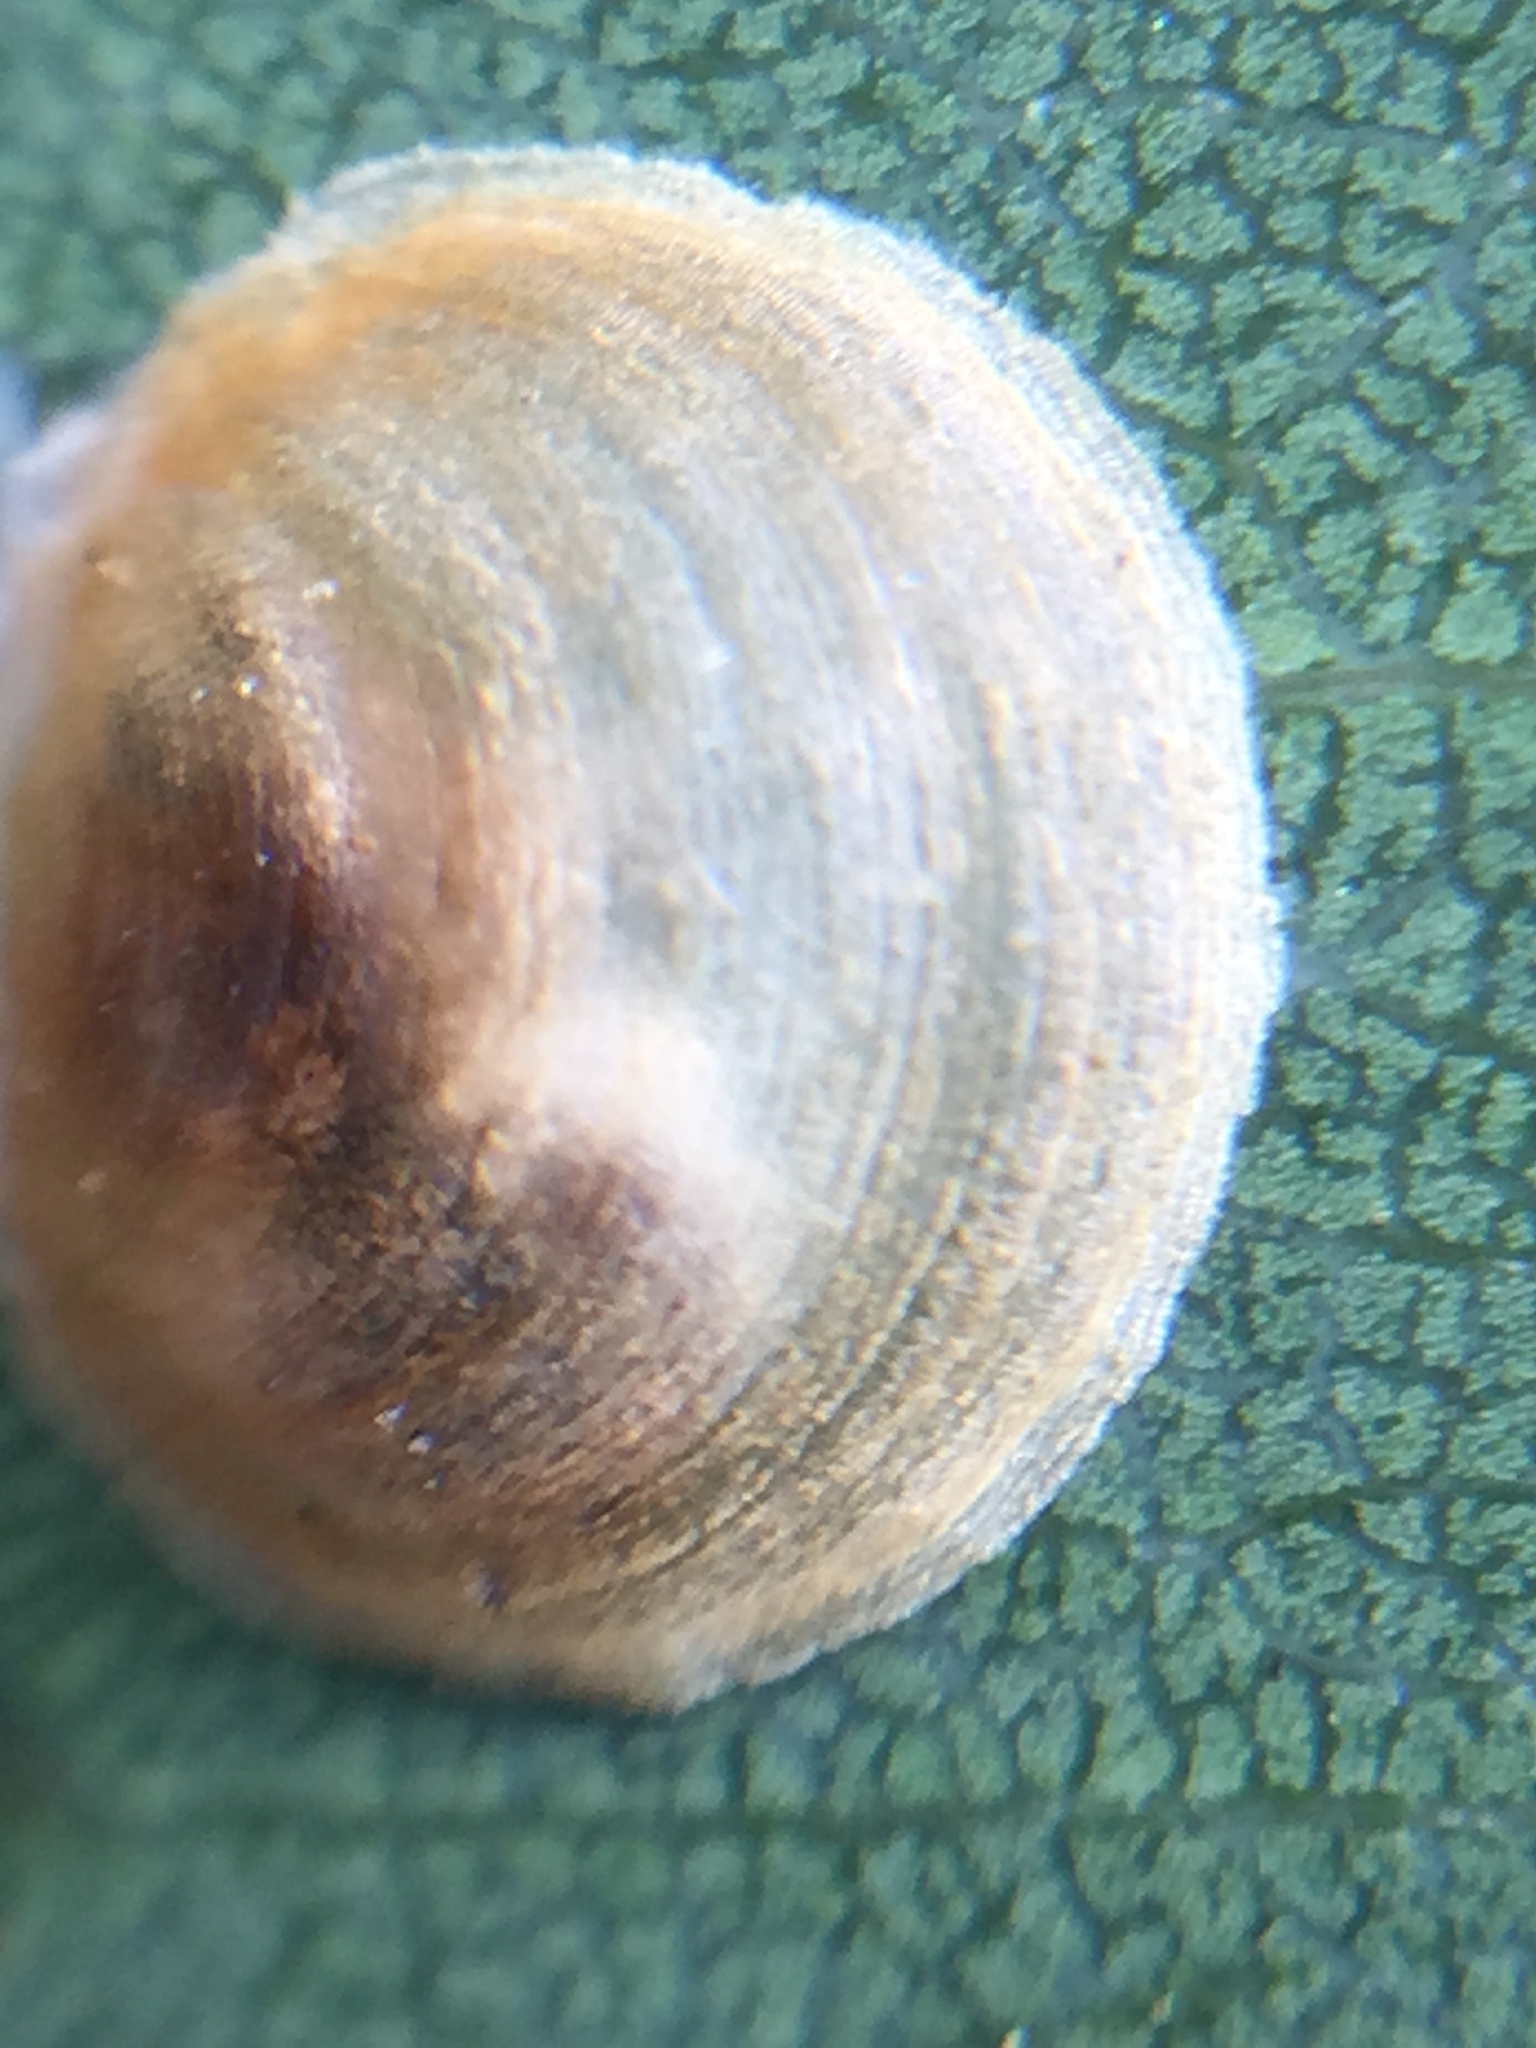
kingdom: Animalia
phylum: Arthropoda
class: Insecta
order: Hemiptera
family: Aphalaridae
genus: Creiis
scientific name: Creiis lituratus
